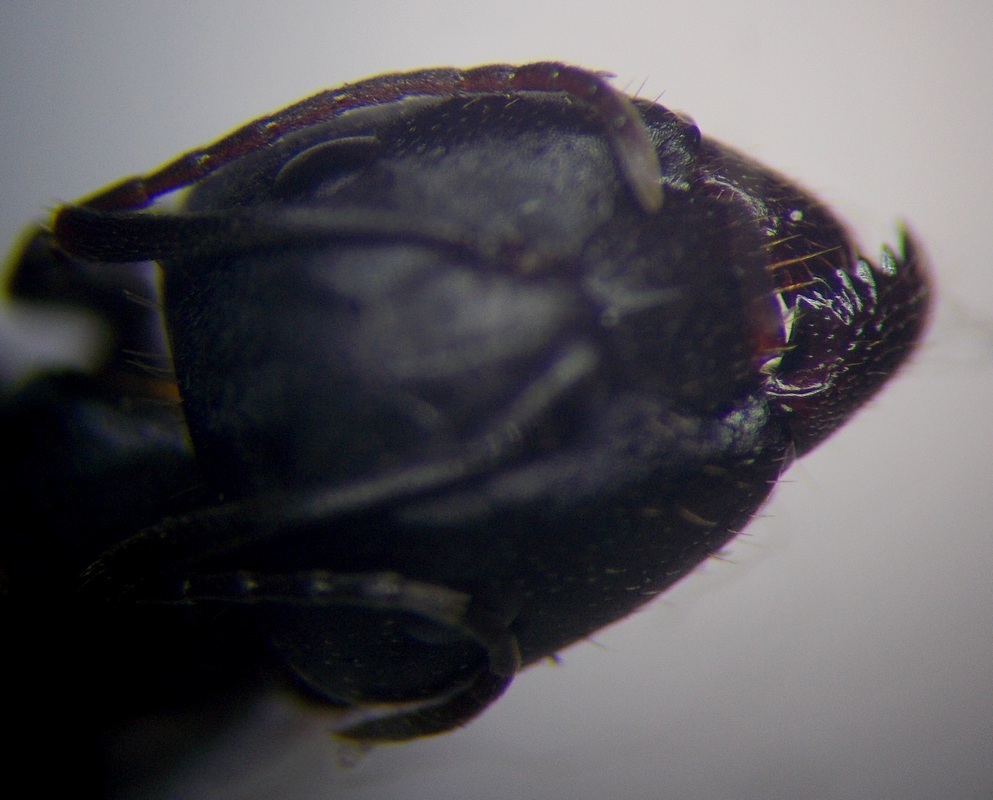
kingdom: Animalia
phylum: Arthropoda
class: Insecta
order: Hymenoptera
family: Formicidae
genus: Camponotus
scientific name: Camponotus aethiops
